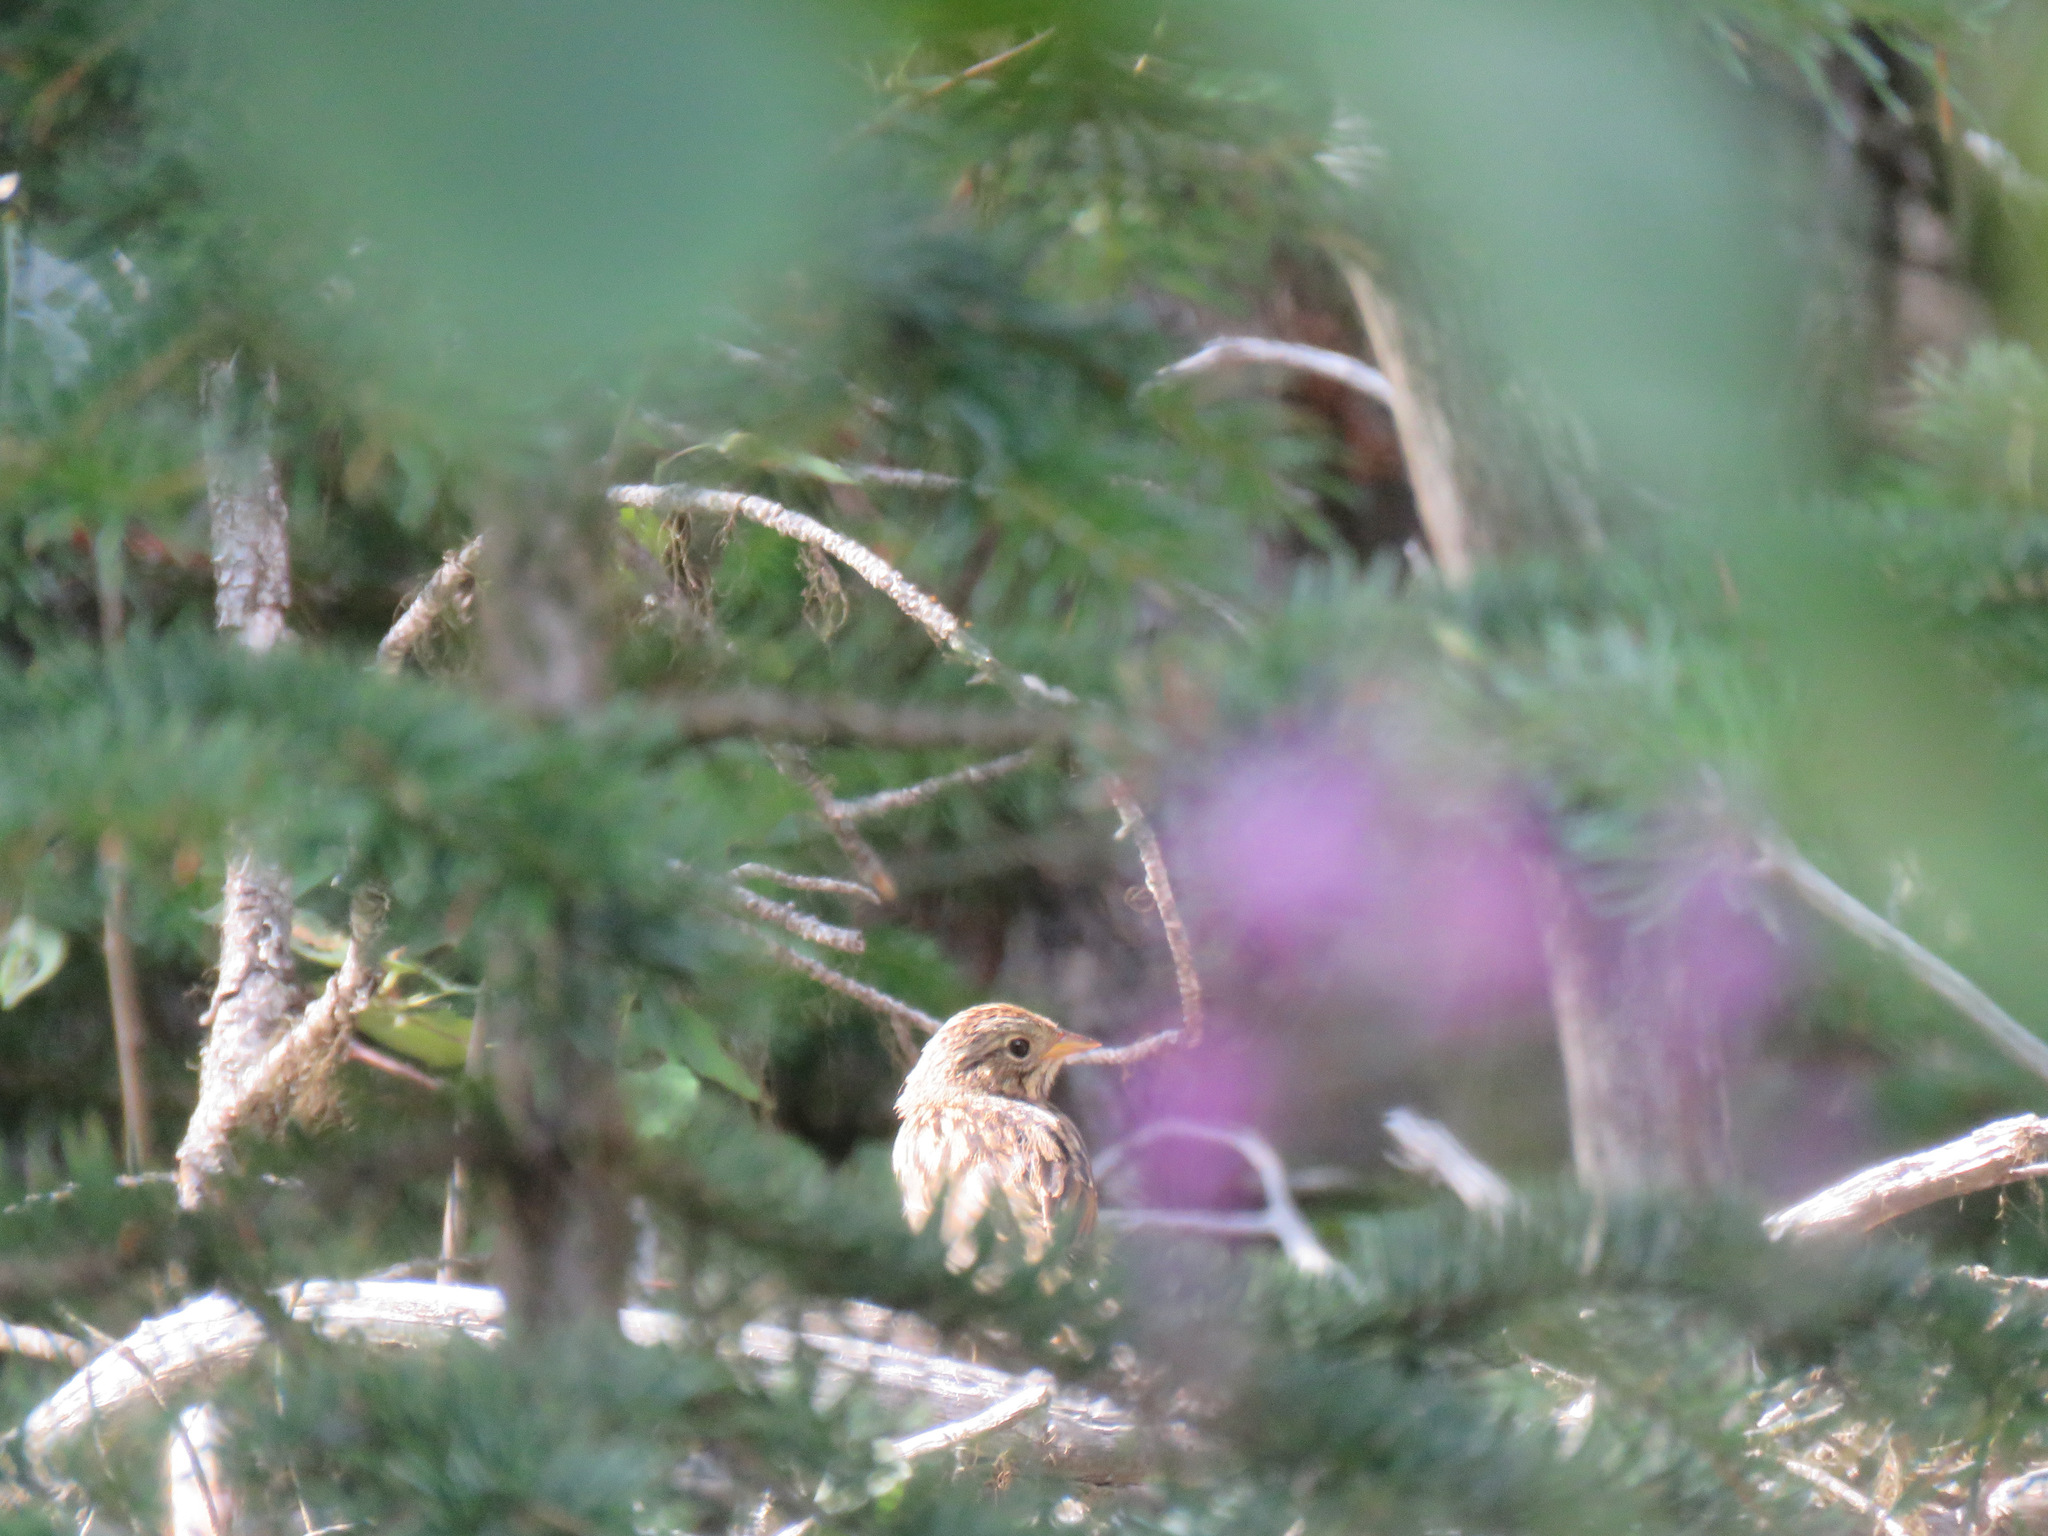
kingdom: Animalia
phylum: Chordata
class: Aves
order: Passeriformes
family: Passerellidae
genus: Melospiza
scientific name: Melospiza lincolnii
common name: Lincoln's sparrow
